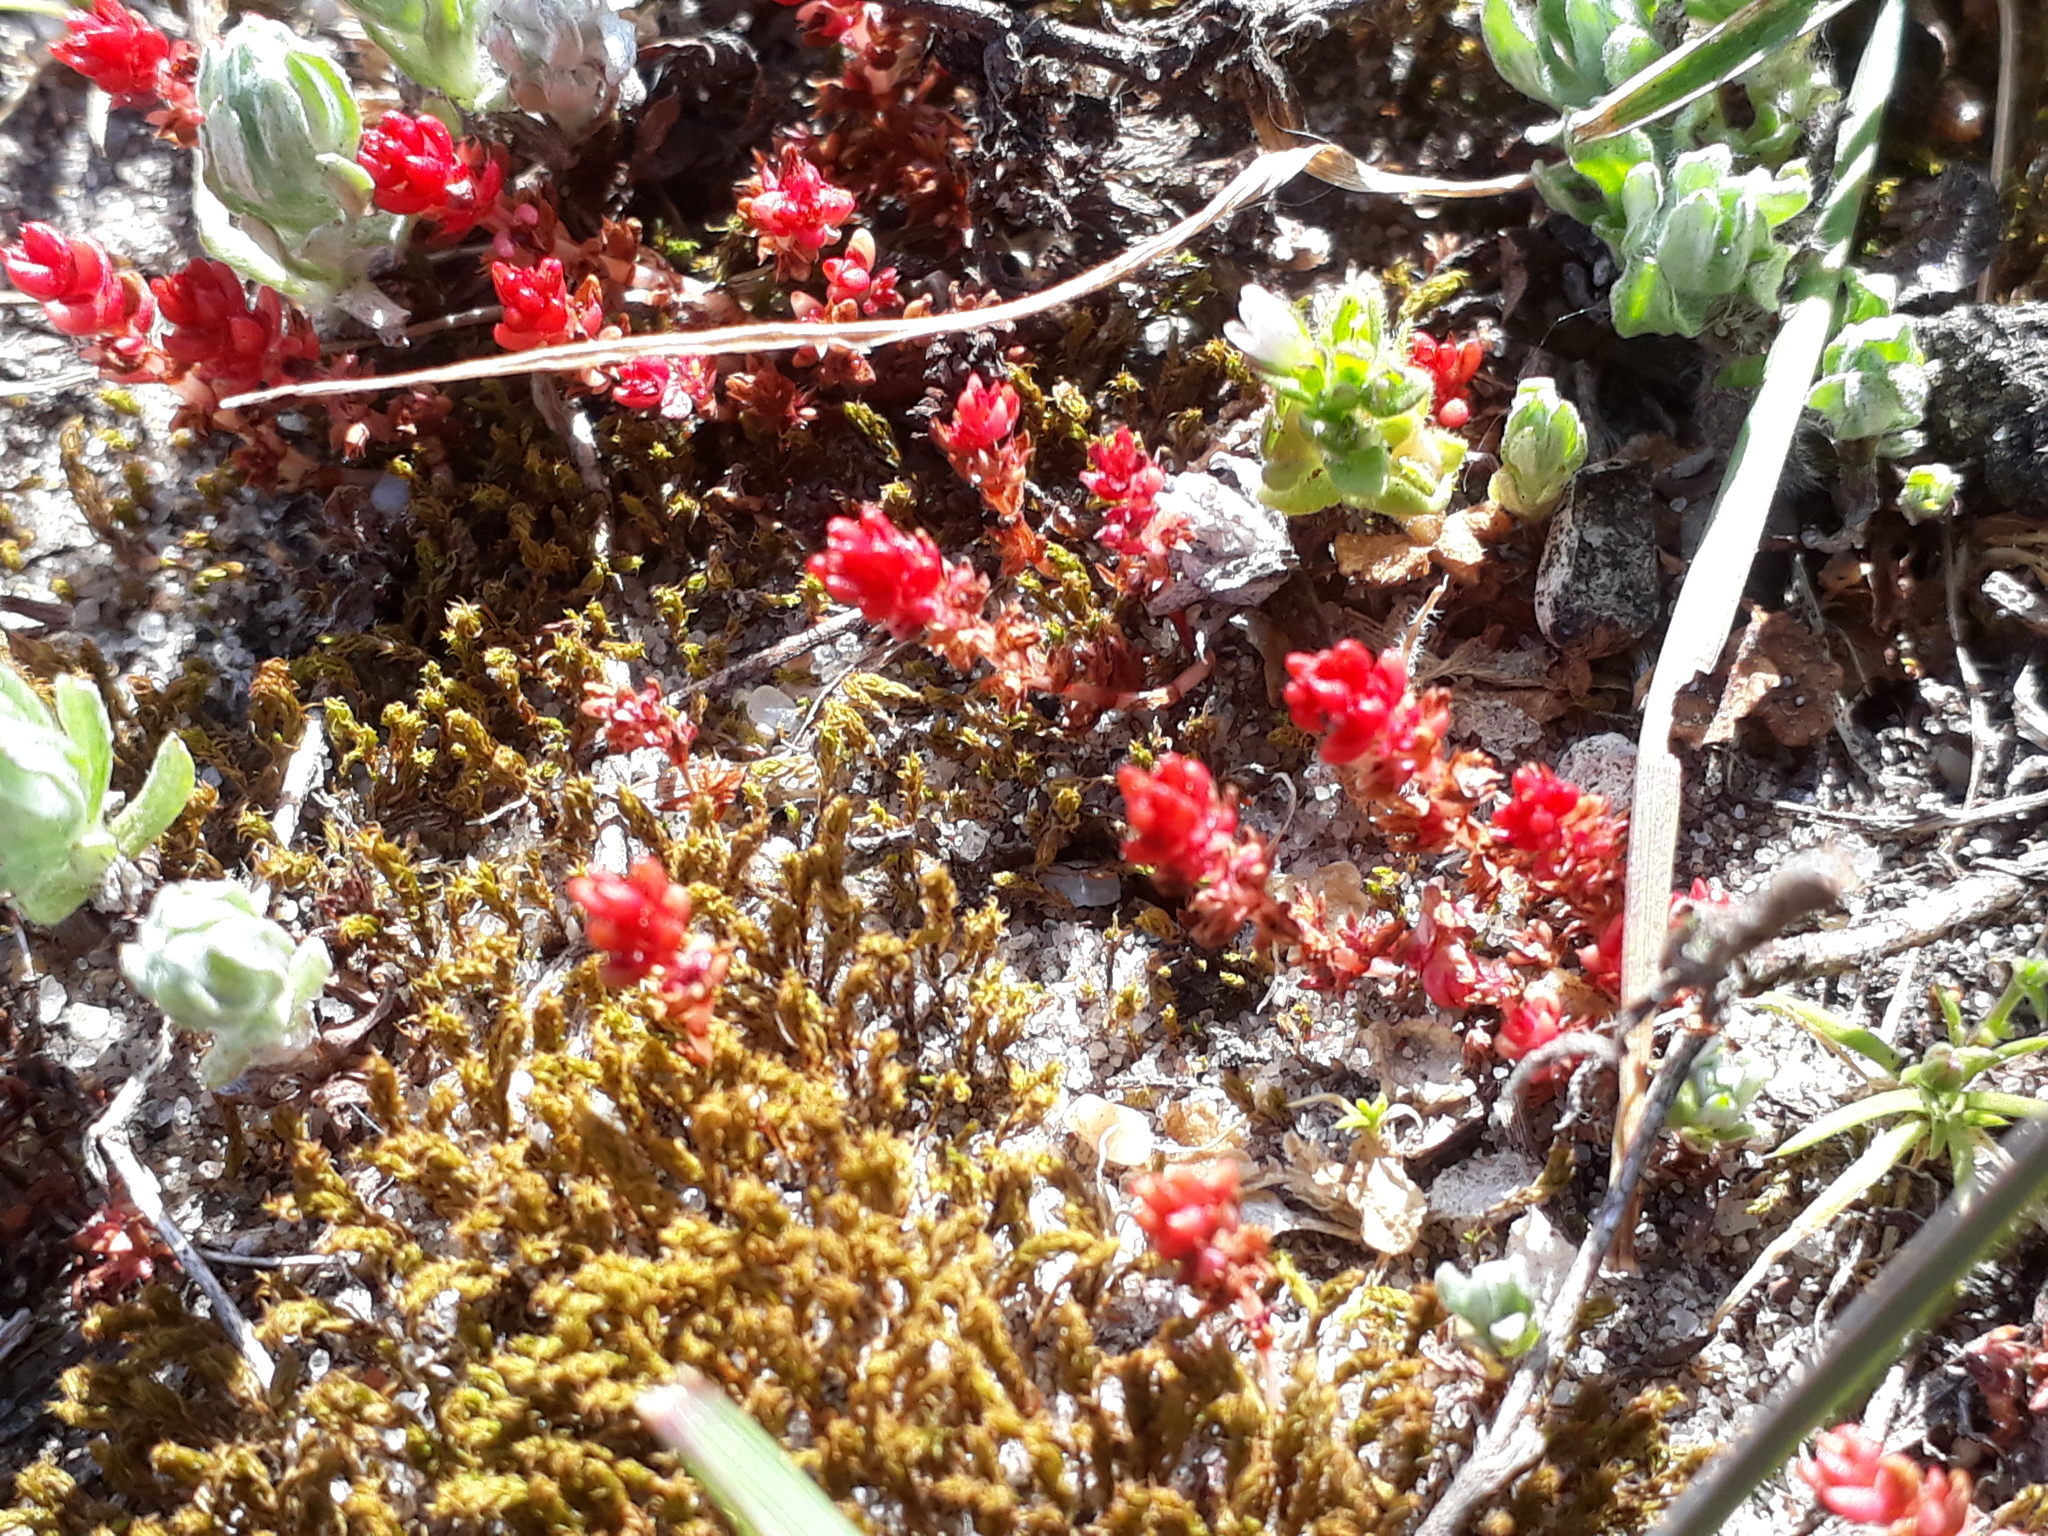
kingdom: Plantae
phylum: Tracheophyta
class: Magnoliopsida
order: Saxifragales
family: Crassulaceae
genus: Crassula
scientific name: Crassula tillaea
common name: Mossy stonecrop
